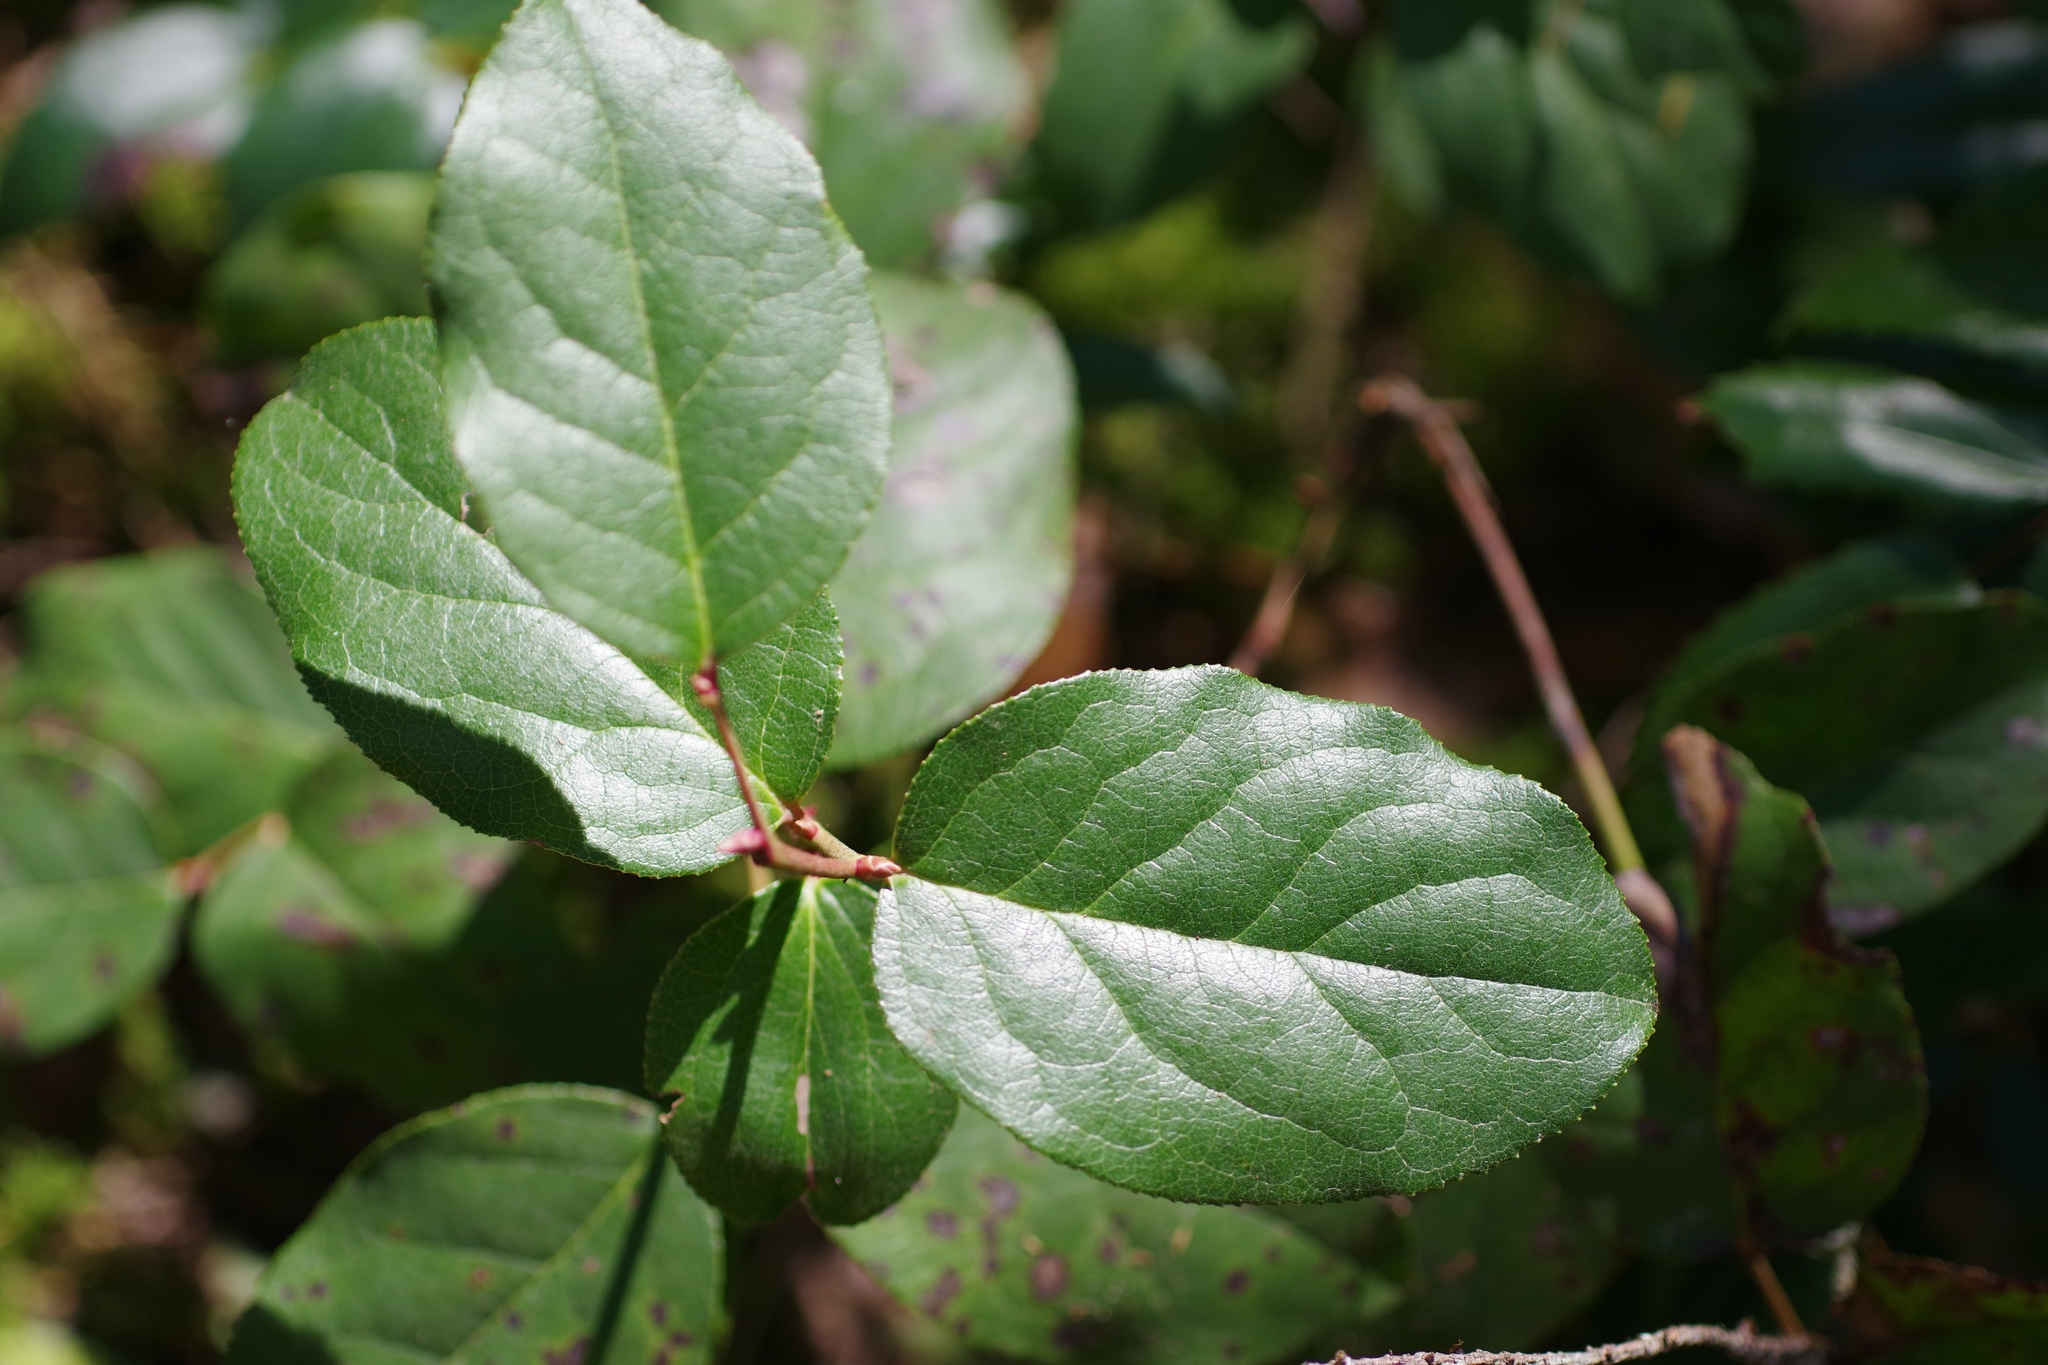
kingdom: Plantae
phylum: Tracheophyta
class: Magnoliopsida
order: Ericales
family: Ericaceae
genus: Gaultheria
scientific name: Gaultheria shallon
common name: Shallon
